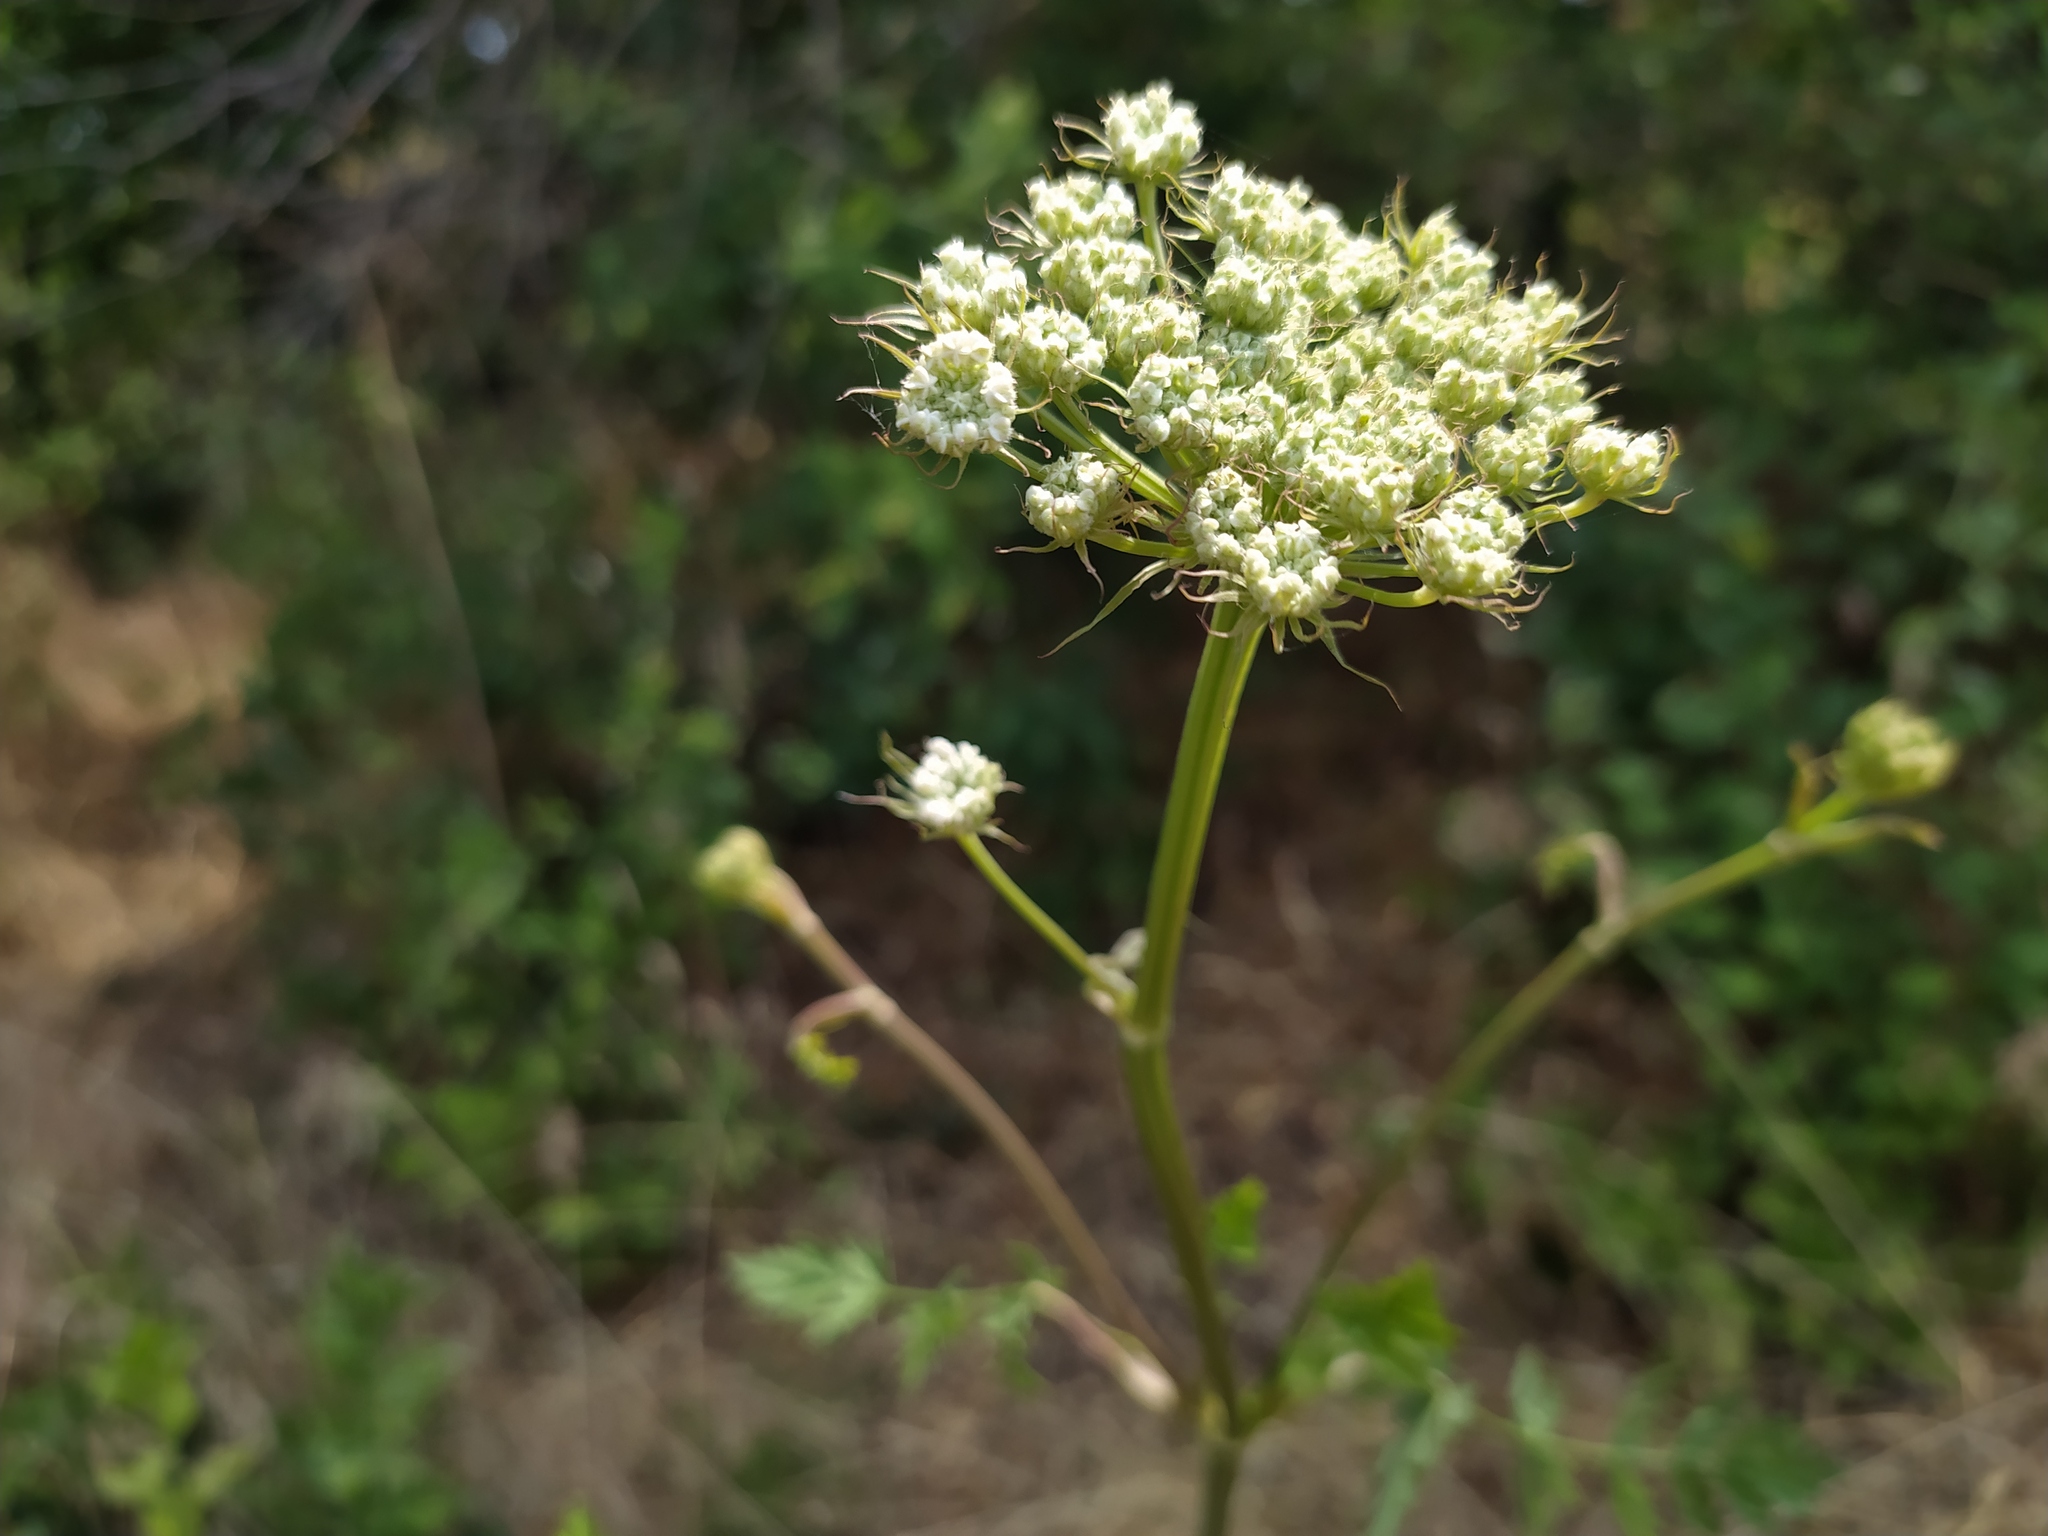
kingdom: Plantae
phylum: Tracheophyta
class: Magnoliopsida
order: Apiales
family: Apiaceae
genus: Seseli
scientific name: Seseli libanotis
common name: Mooncarrot
